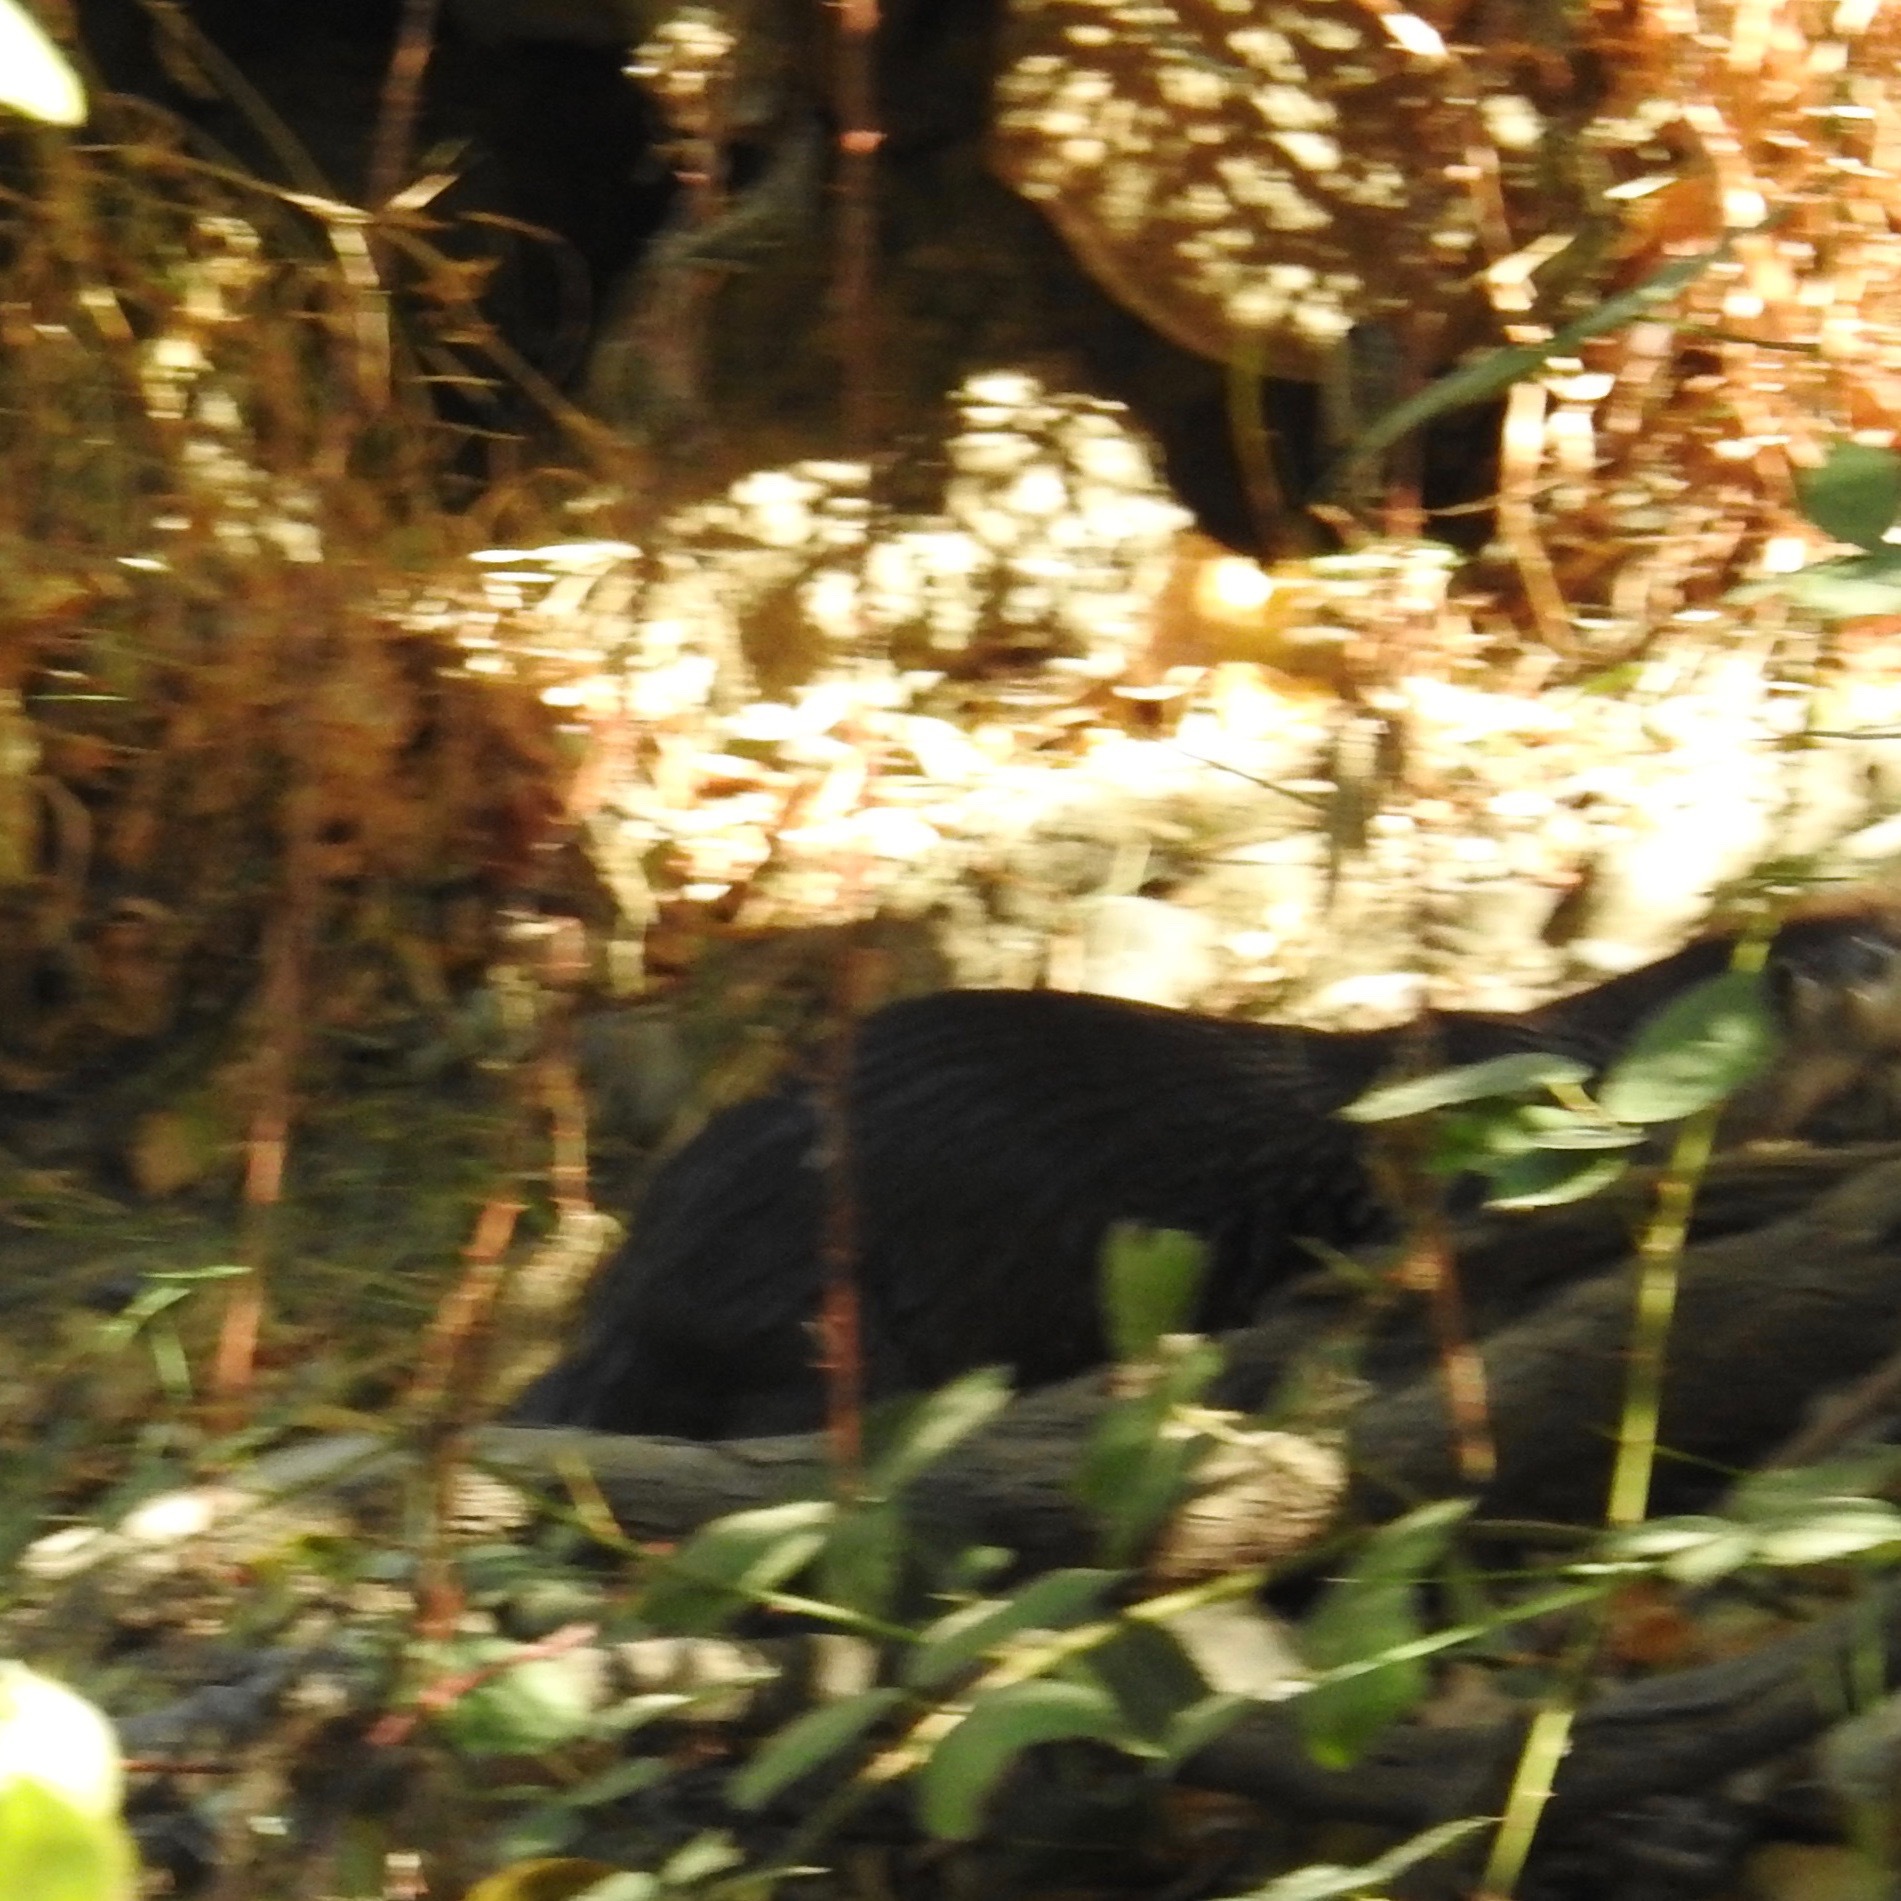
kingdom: Animalia
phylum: Chordata
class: Mammalia
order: Carnivora
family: Mustelidae
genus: Lontra
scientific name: Lontra canadensis
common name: North american river otter
